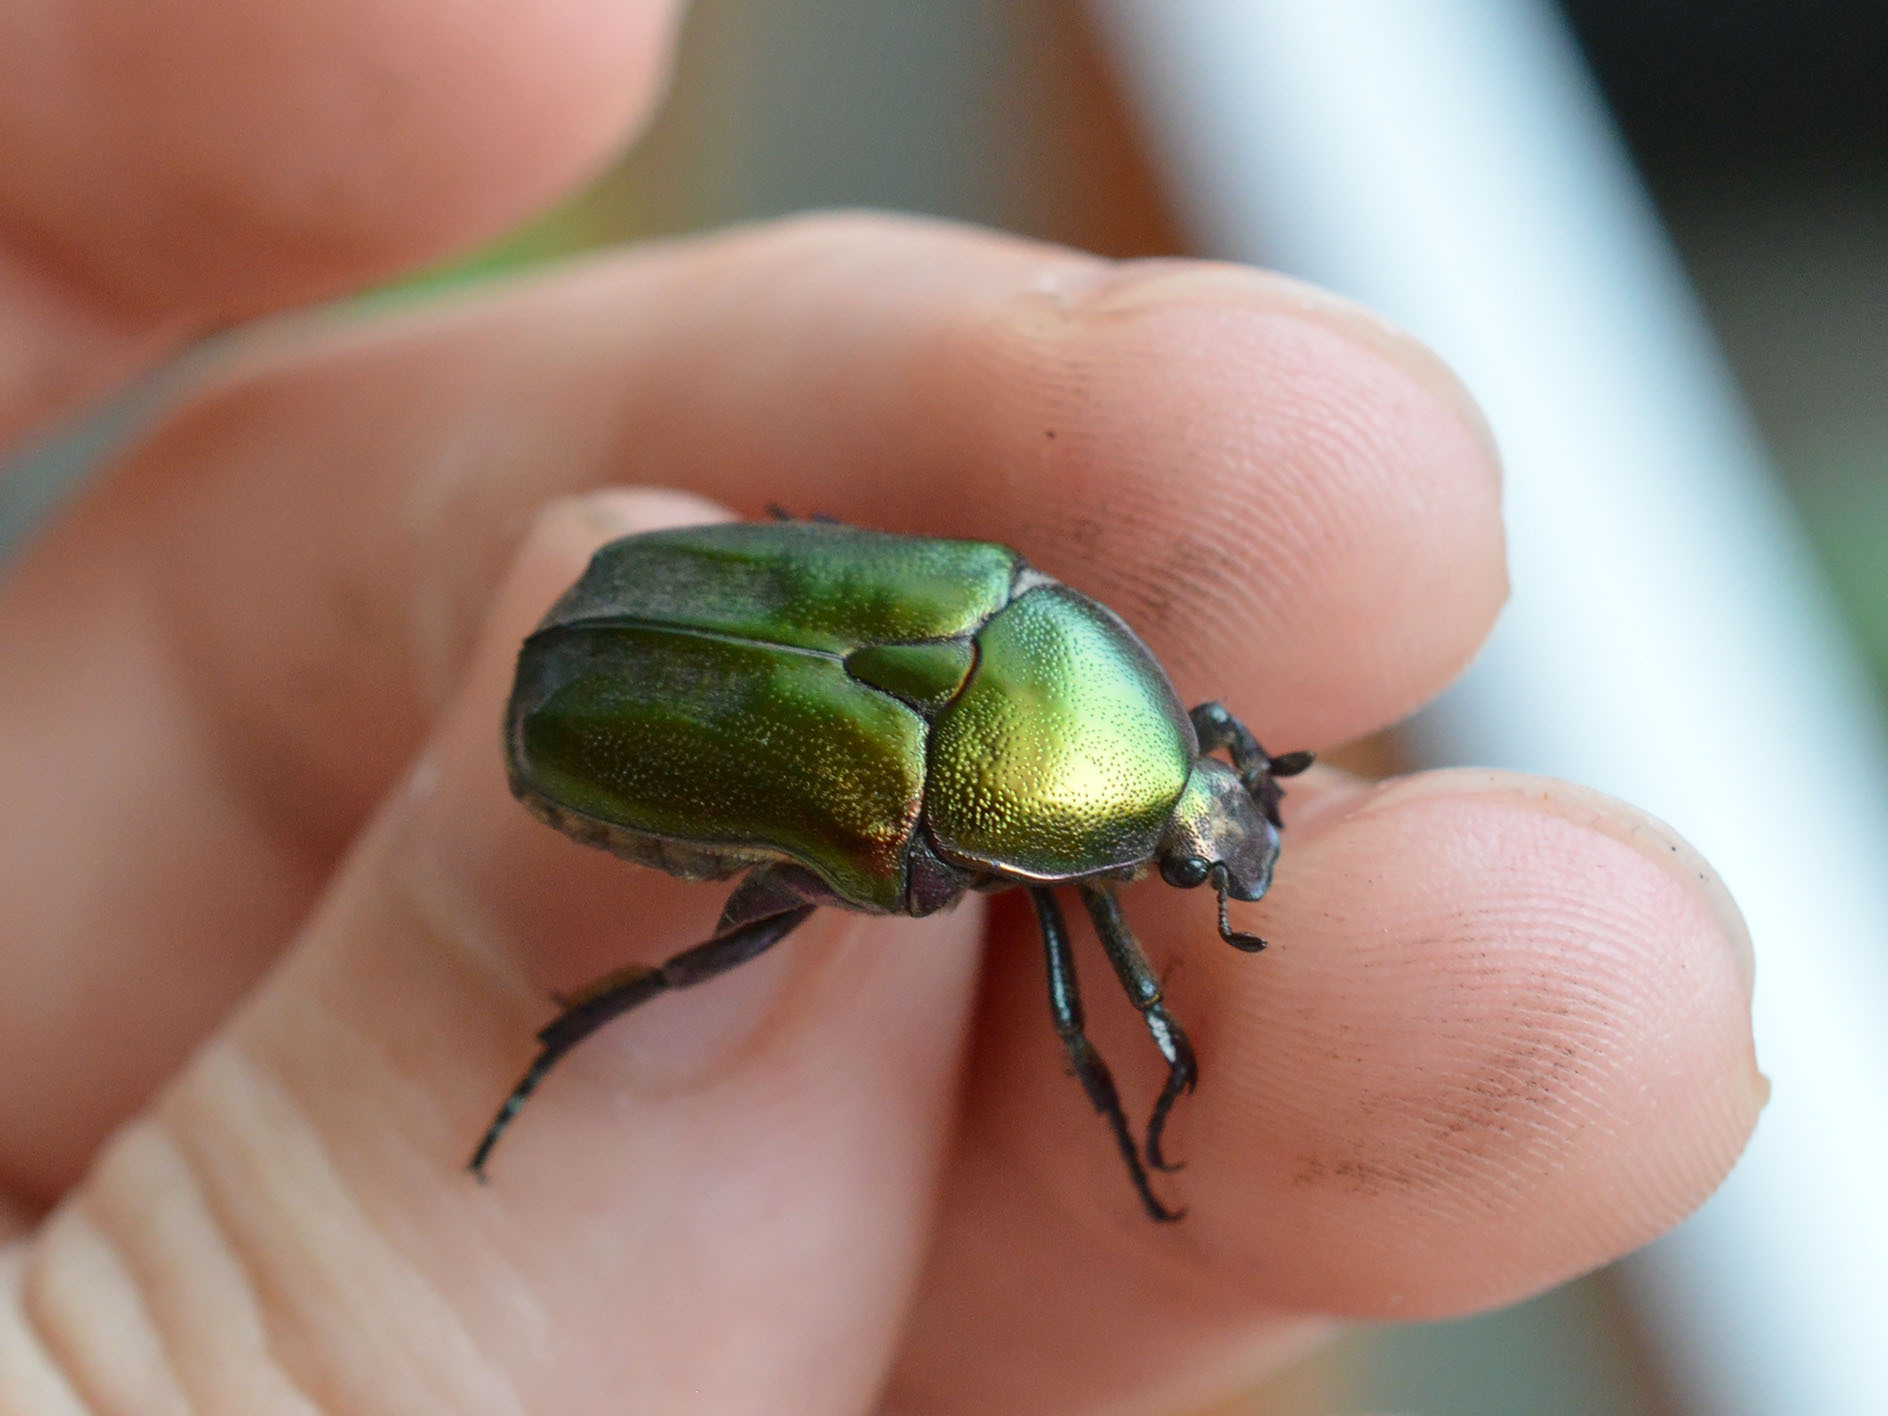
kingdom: Animalia
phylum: Arthropoda
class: Insecta
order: Coleoptera
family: Scarabaeidae
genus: Protaetia
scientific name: Protaetia cuprea
